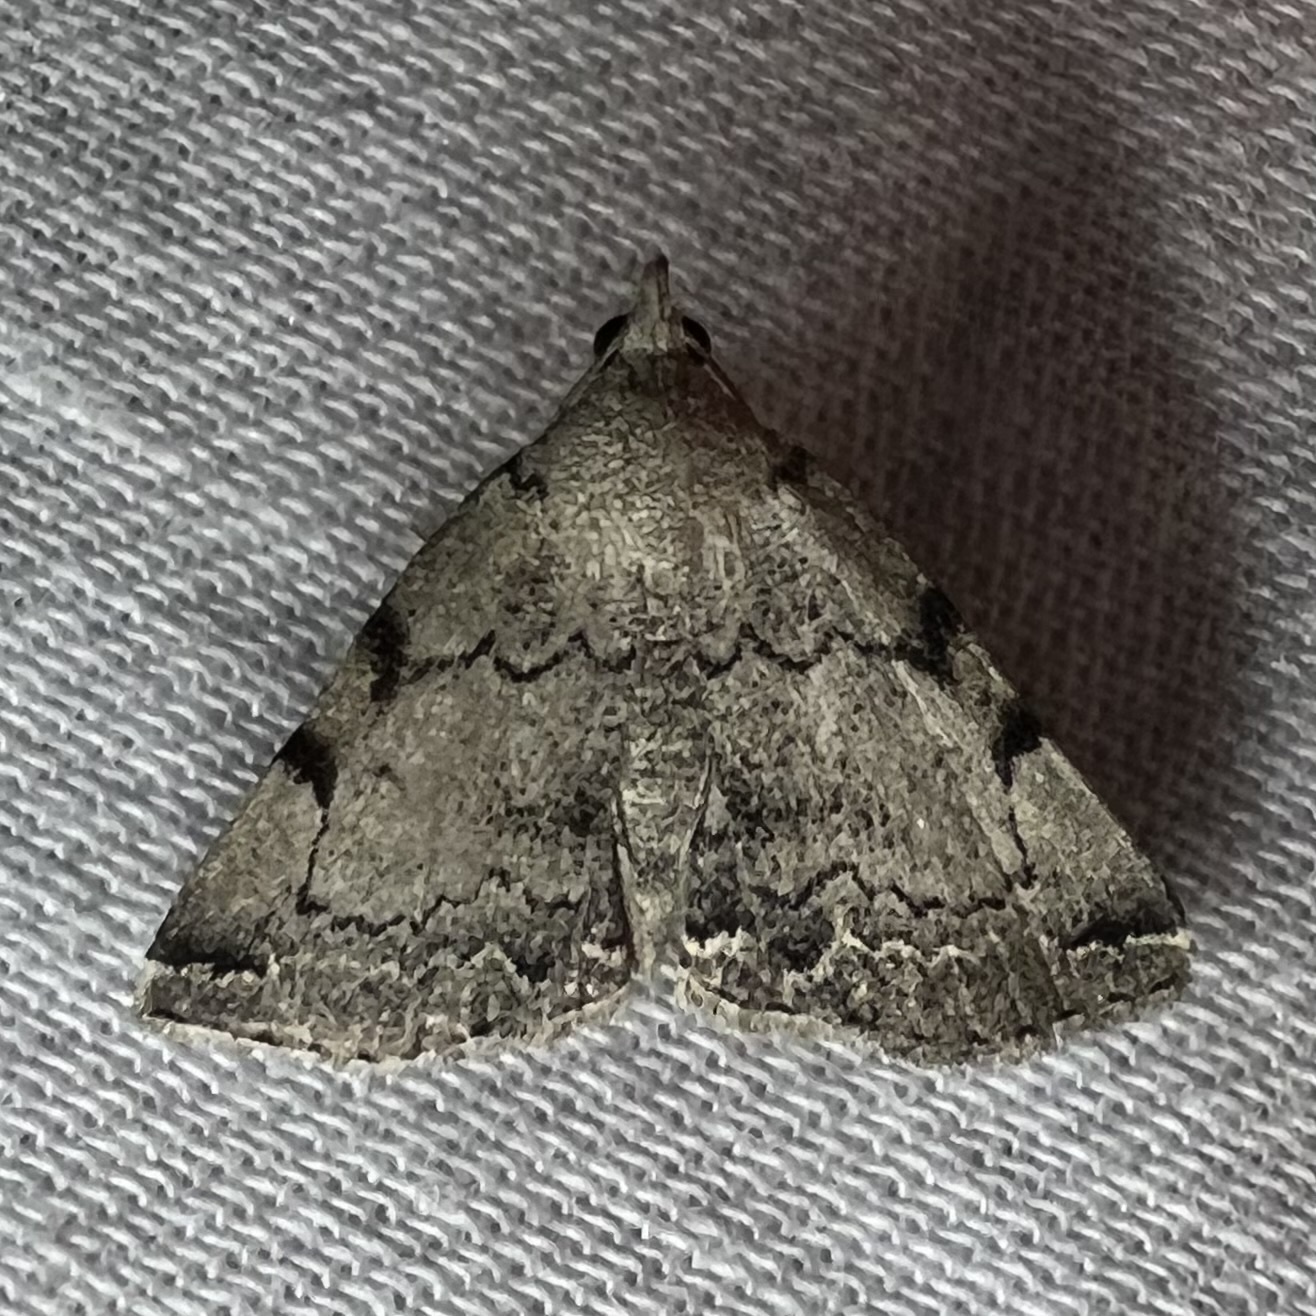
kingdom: Animalia
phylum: Arthropoda
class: Insecta
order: Lepidoptera
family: Erebidae
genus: Zanclognatha
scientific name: Zanclognatha theralis
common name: Flagged fan-foot
